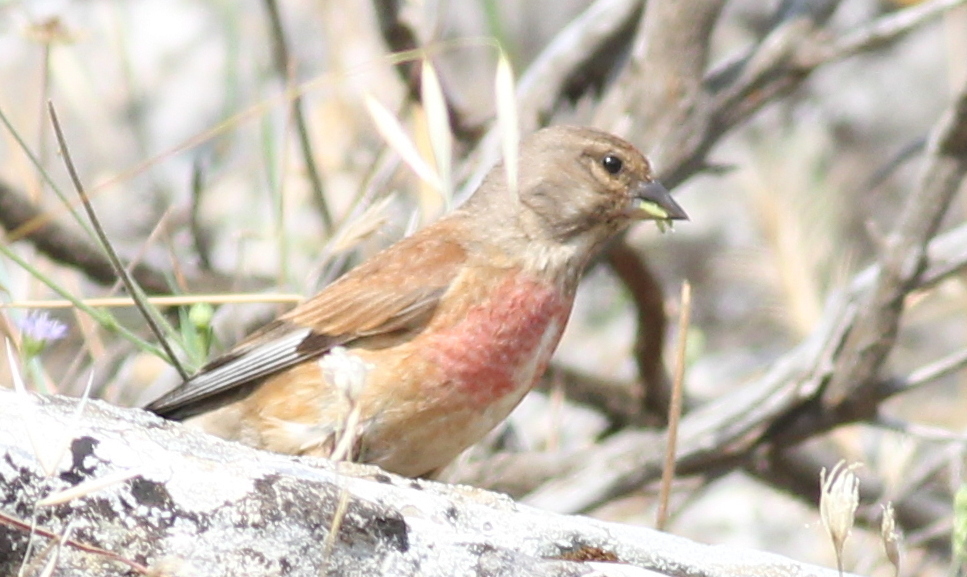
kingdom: Animalia
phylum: Chordata
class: Aves
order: Passeriformes
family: Fringillidae
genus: Linaria
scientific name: Linaria cannabina
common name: Common linnet
